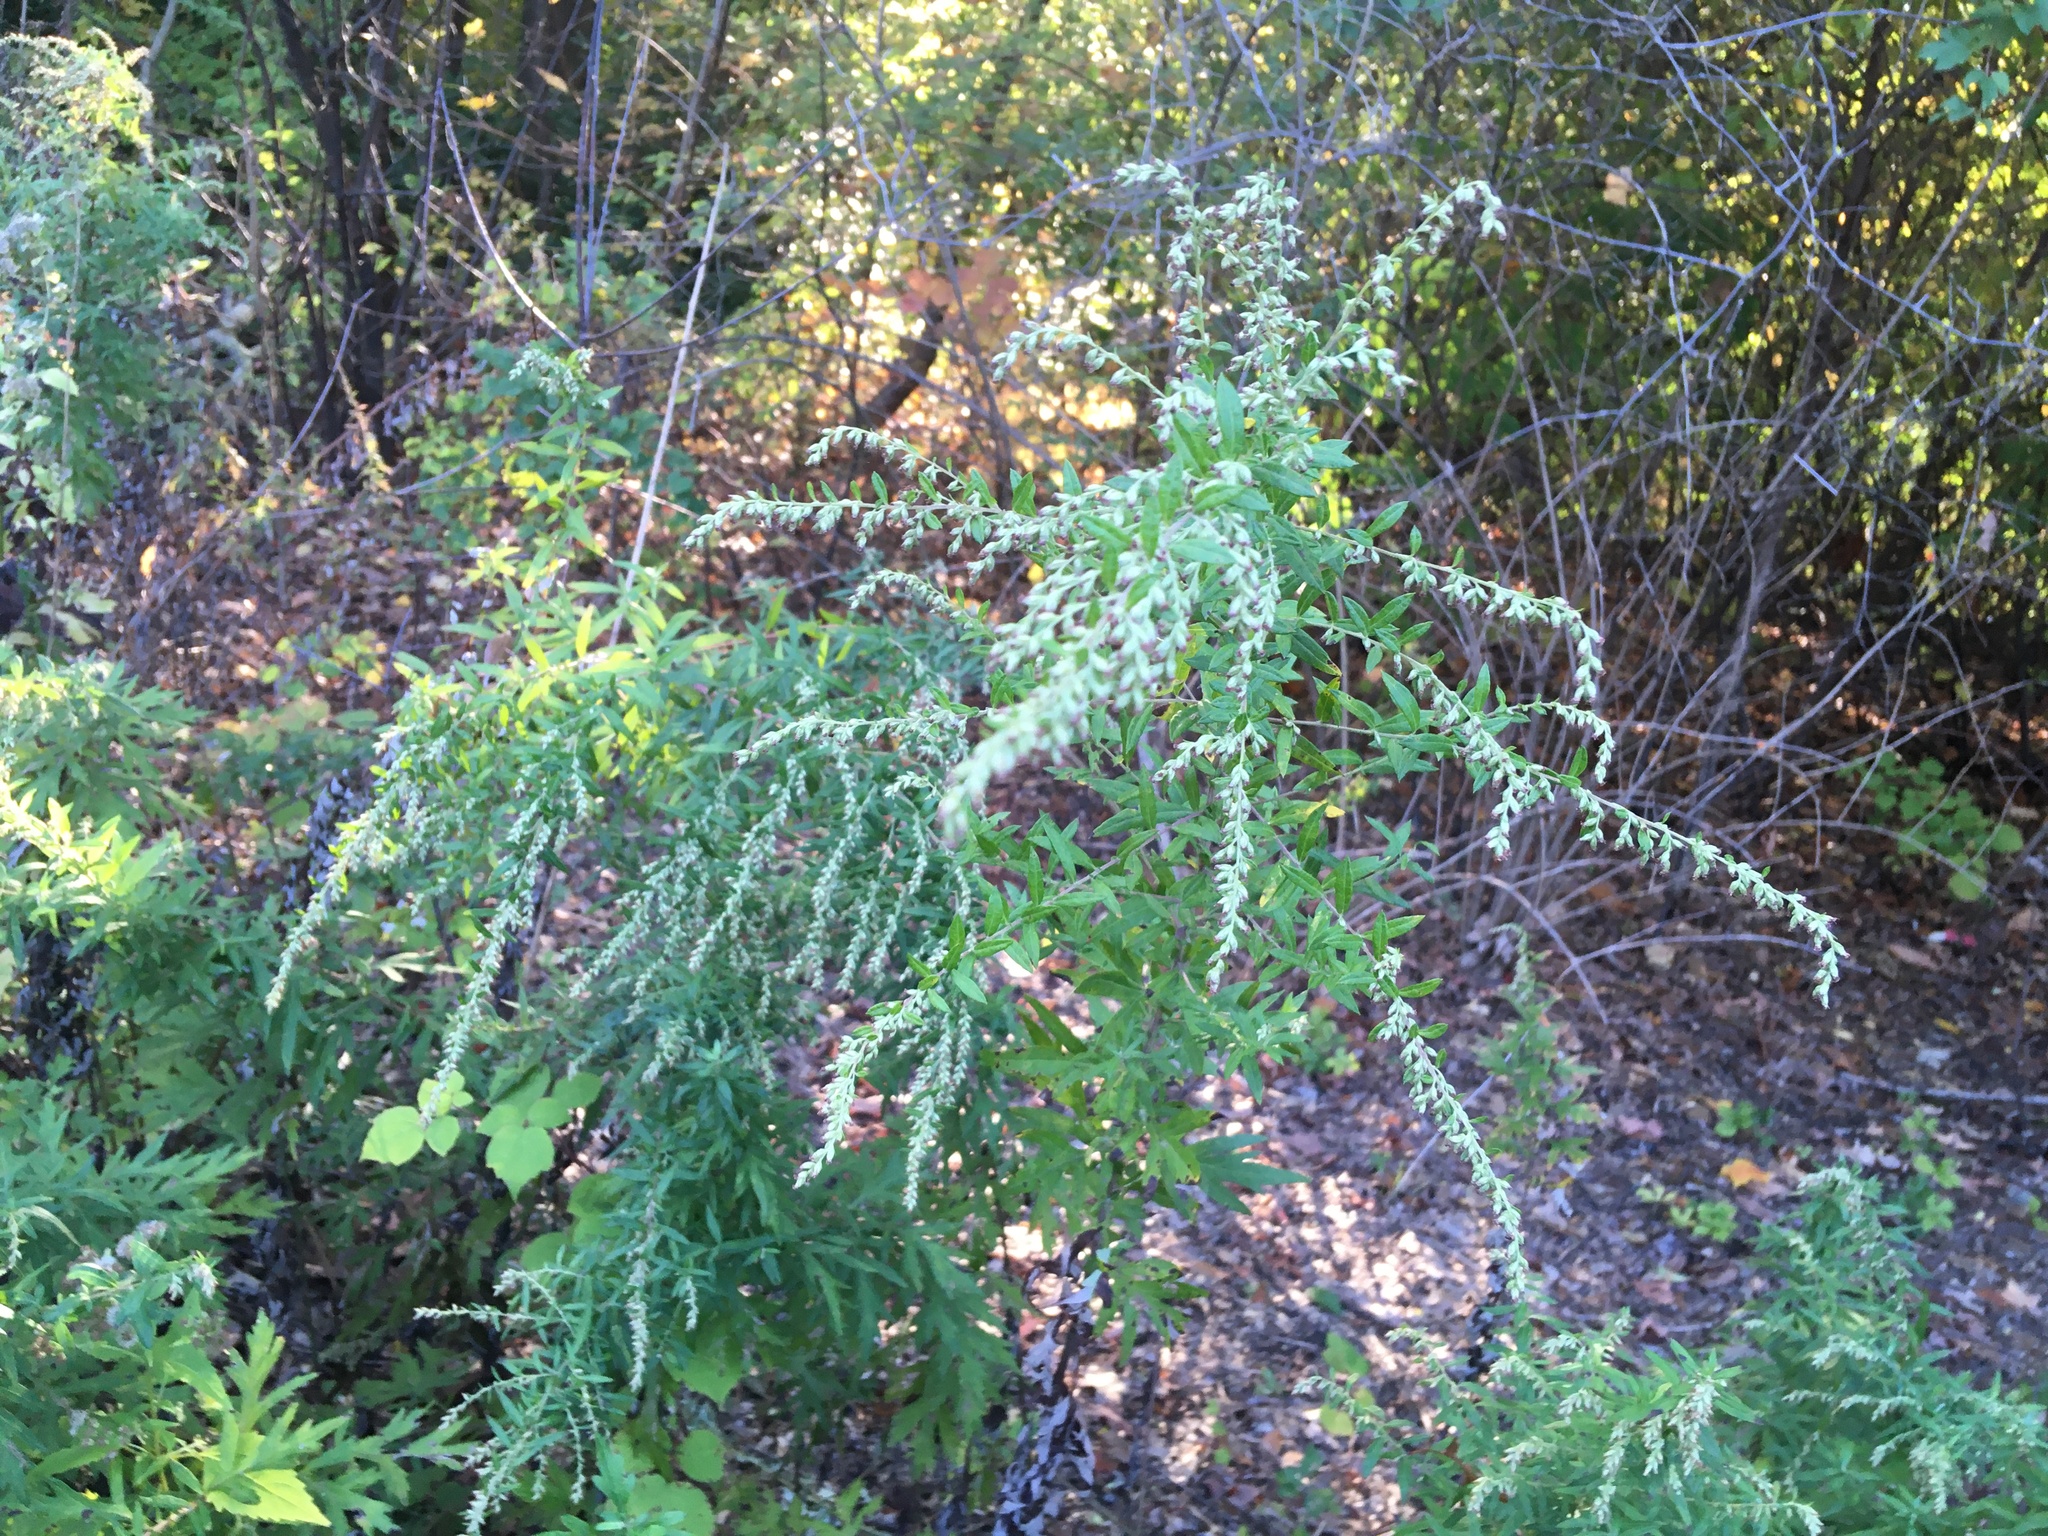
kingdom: Plantae
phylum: Tracheophyta
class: Magnoliopsida
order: Asterales
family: Asteraceae
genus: Artemisia
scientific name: Artemisia vulgaris
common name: Mugwort
